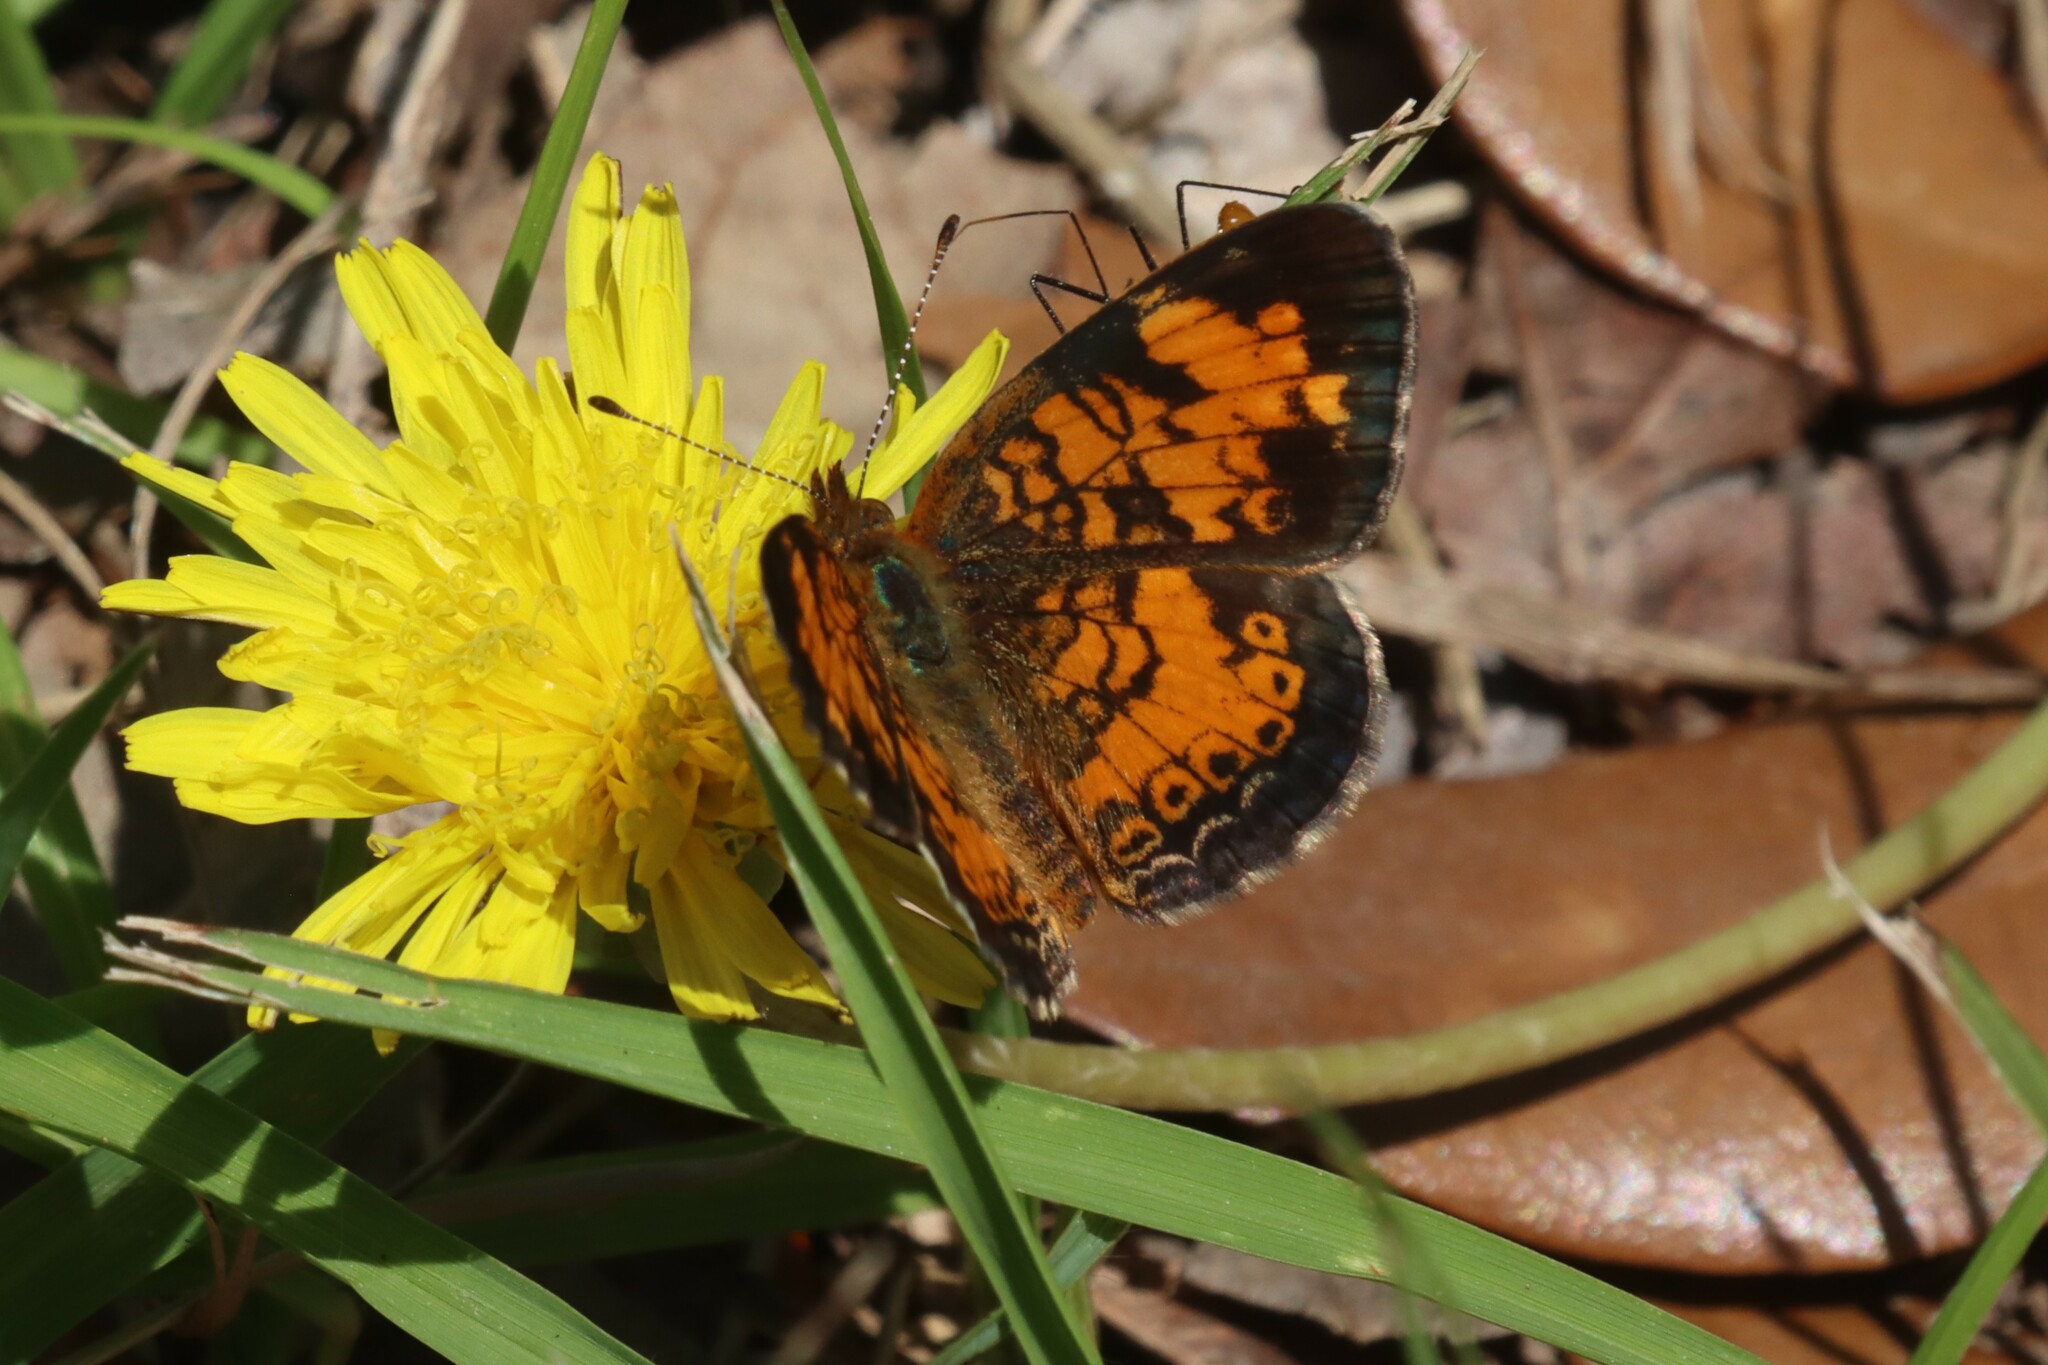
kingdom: Animalia
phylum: Arthropoda
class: Insecta
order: Lepidoptera
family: Nymphalidae
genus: Phyciodes
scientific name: Phyciodes tharos
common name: Pearl crescent
